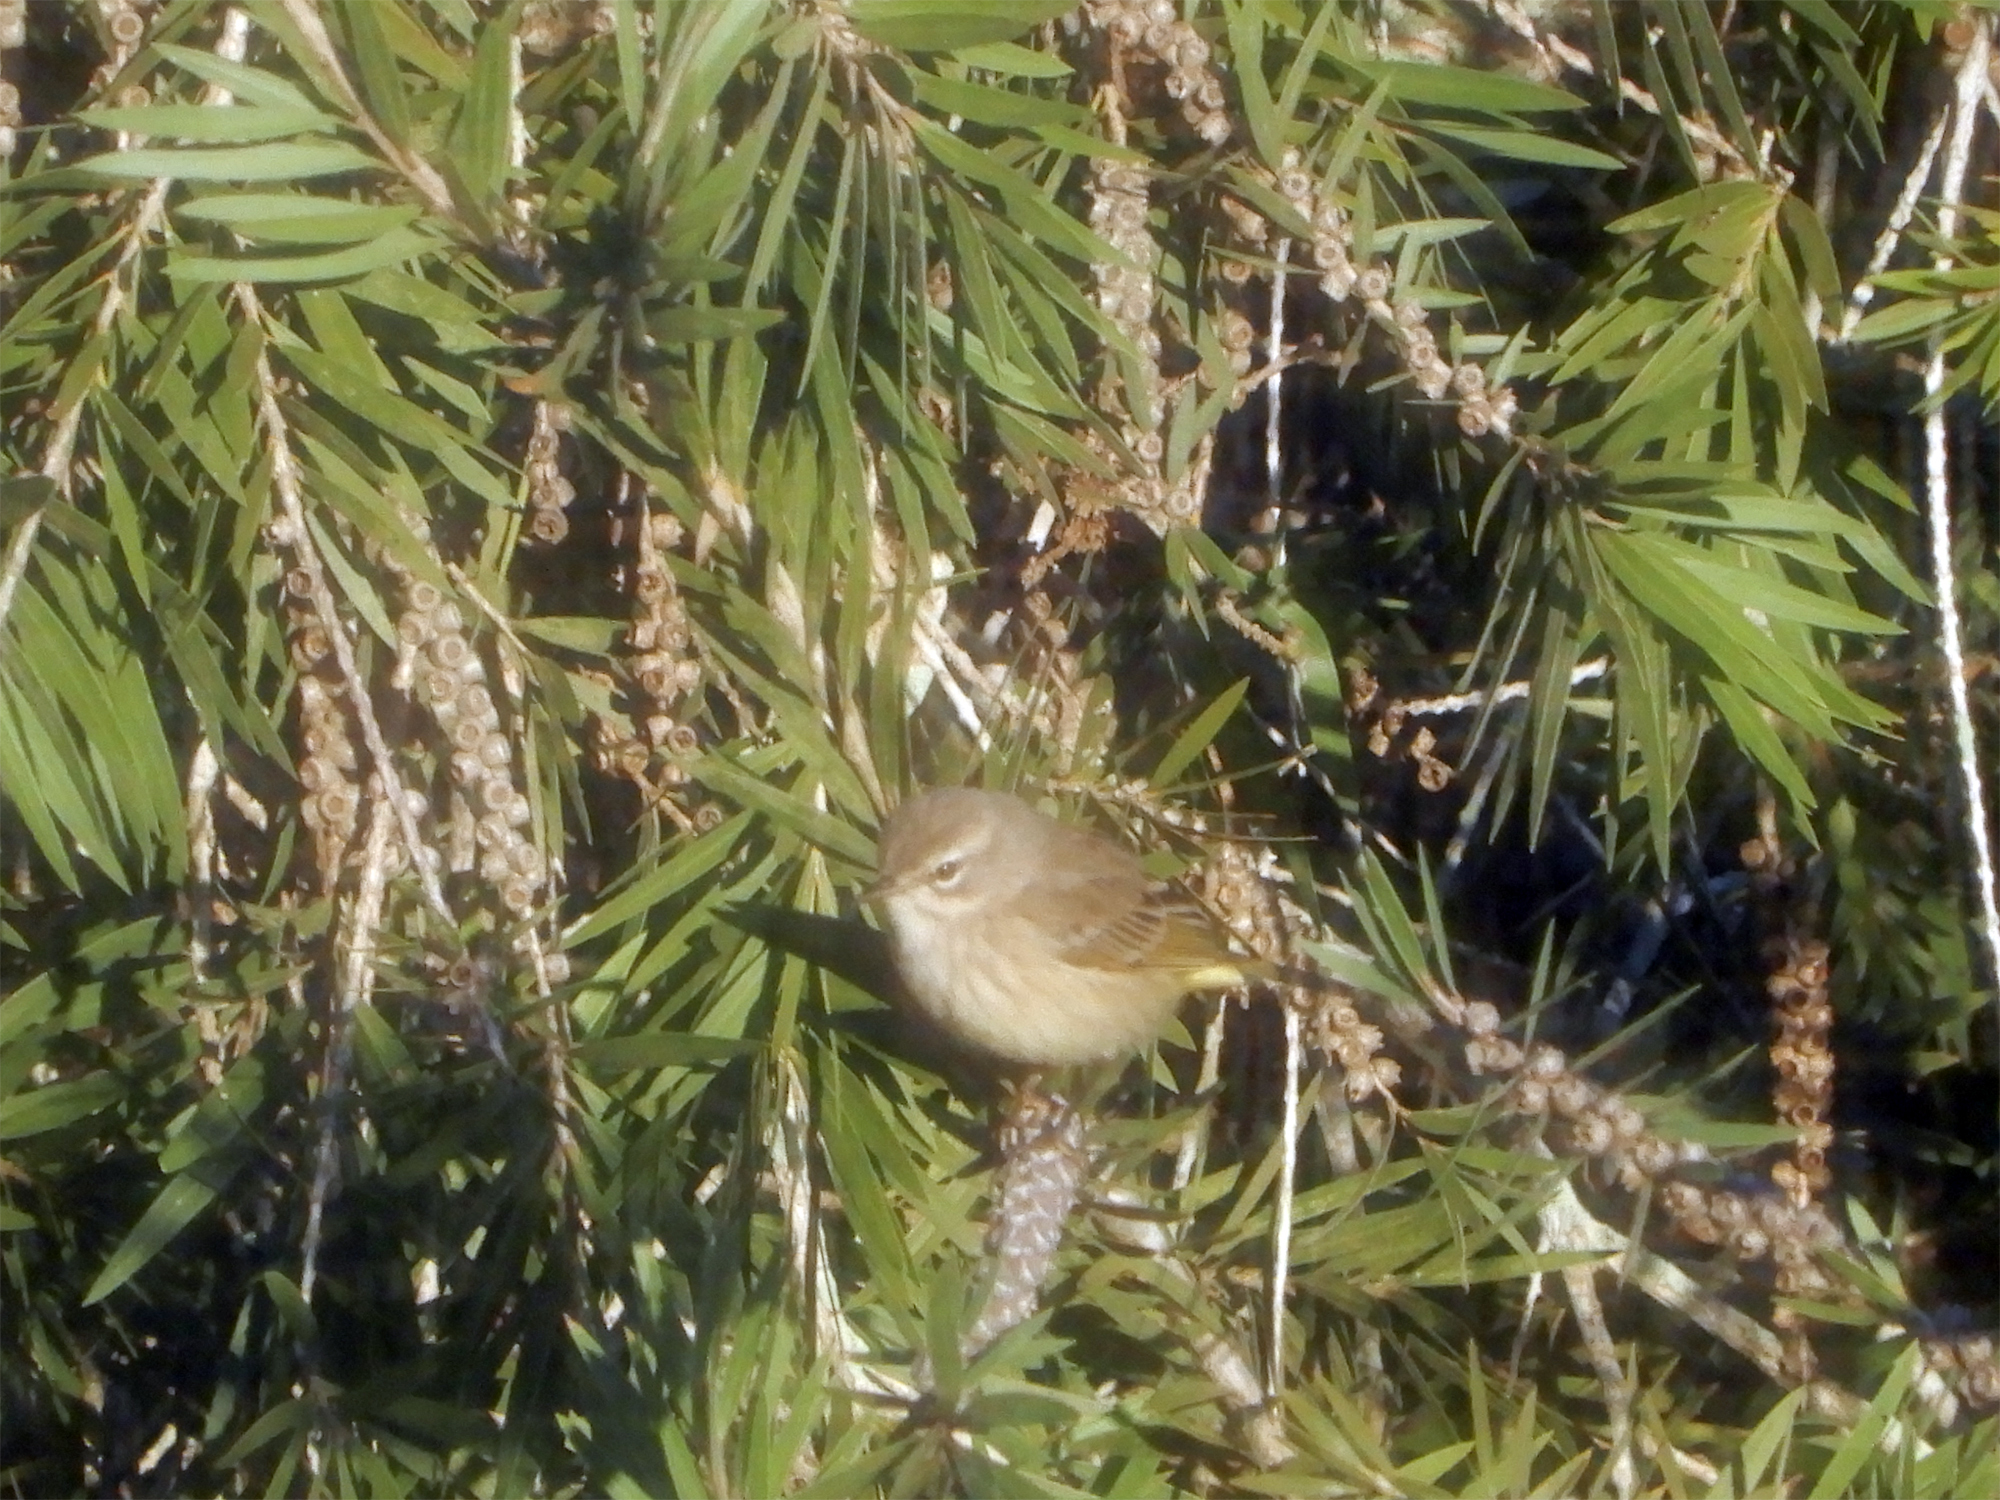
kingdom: Animalia
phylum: Chordata
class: Aves
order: Passeriformes
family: Parulidae
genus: Setophaga
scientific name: Setophaga palmarum
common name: Palm warbler
